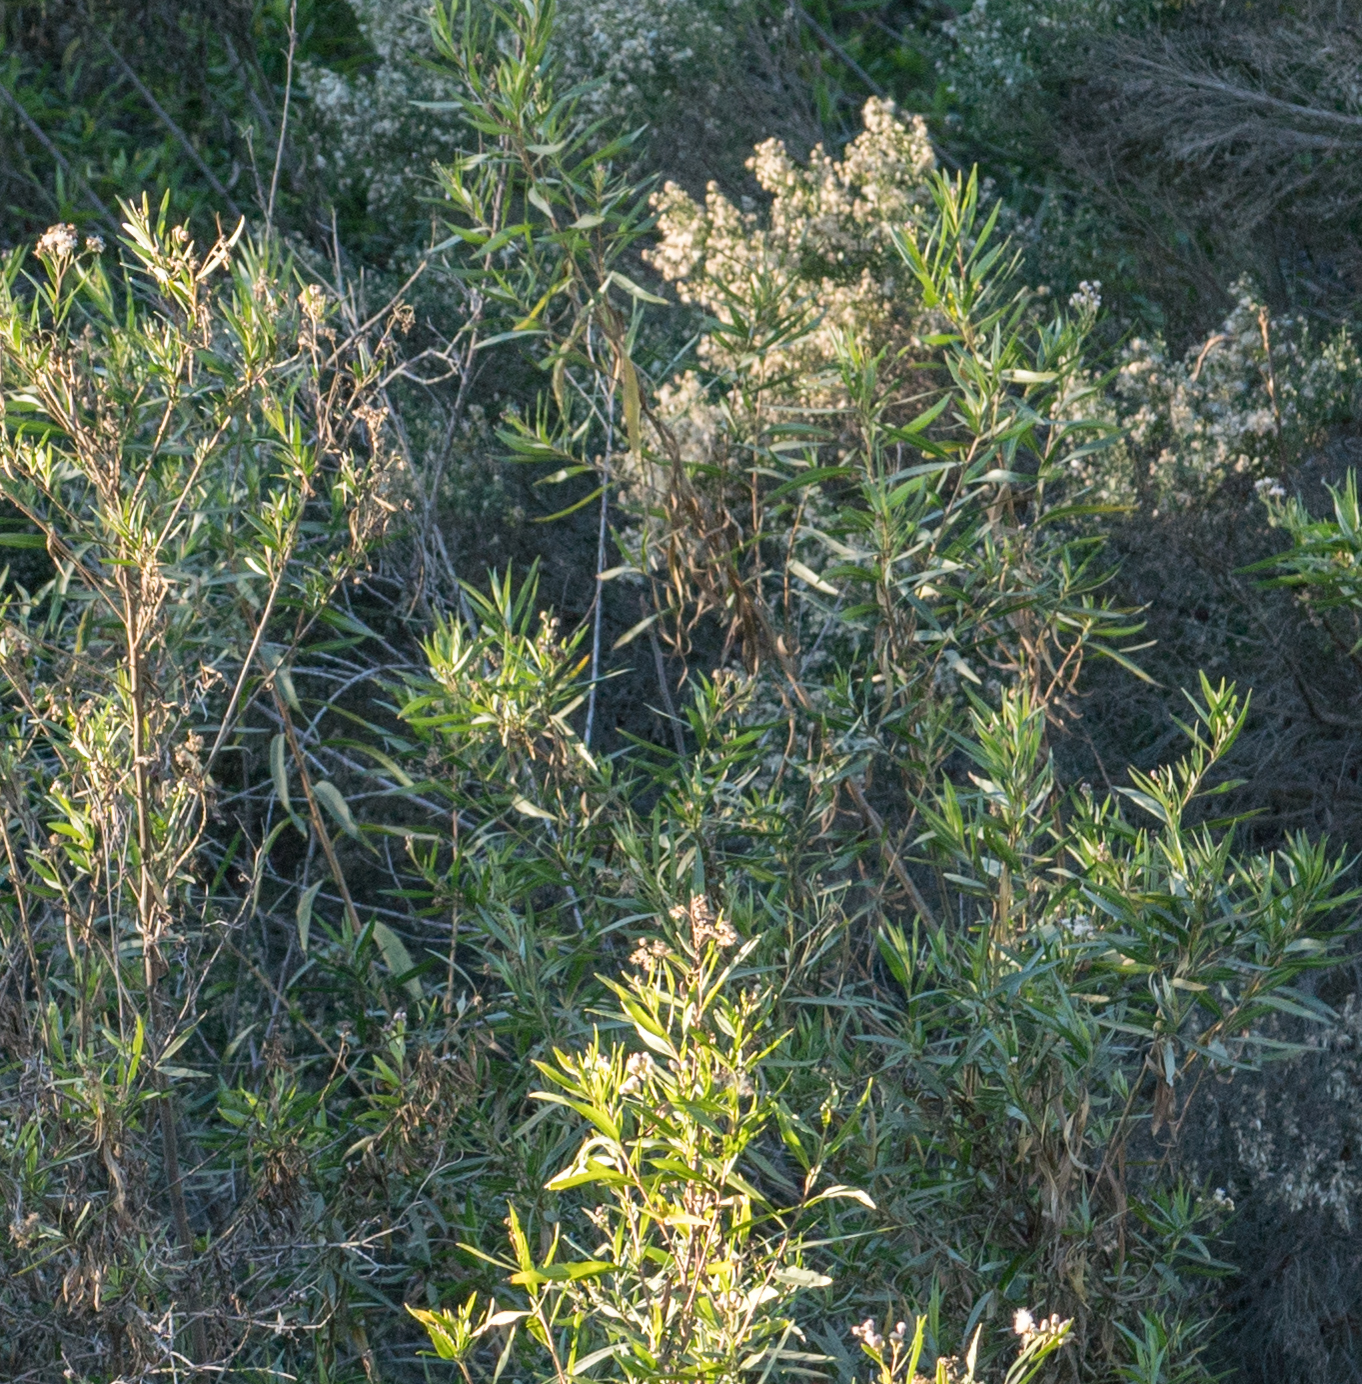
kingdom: Plantae
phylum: Tracheophyta
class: Magnoliopsida
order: Asterales
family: Asteraceae
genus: Baccharis
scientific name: Baccharis salicifolia
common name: Sticky baccharis
